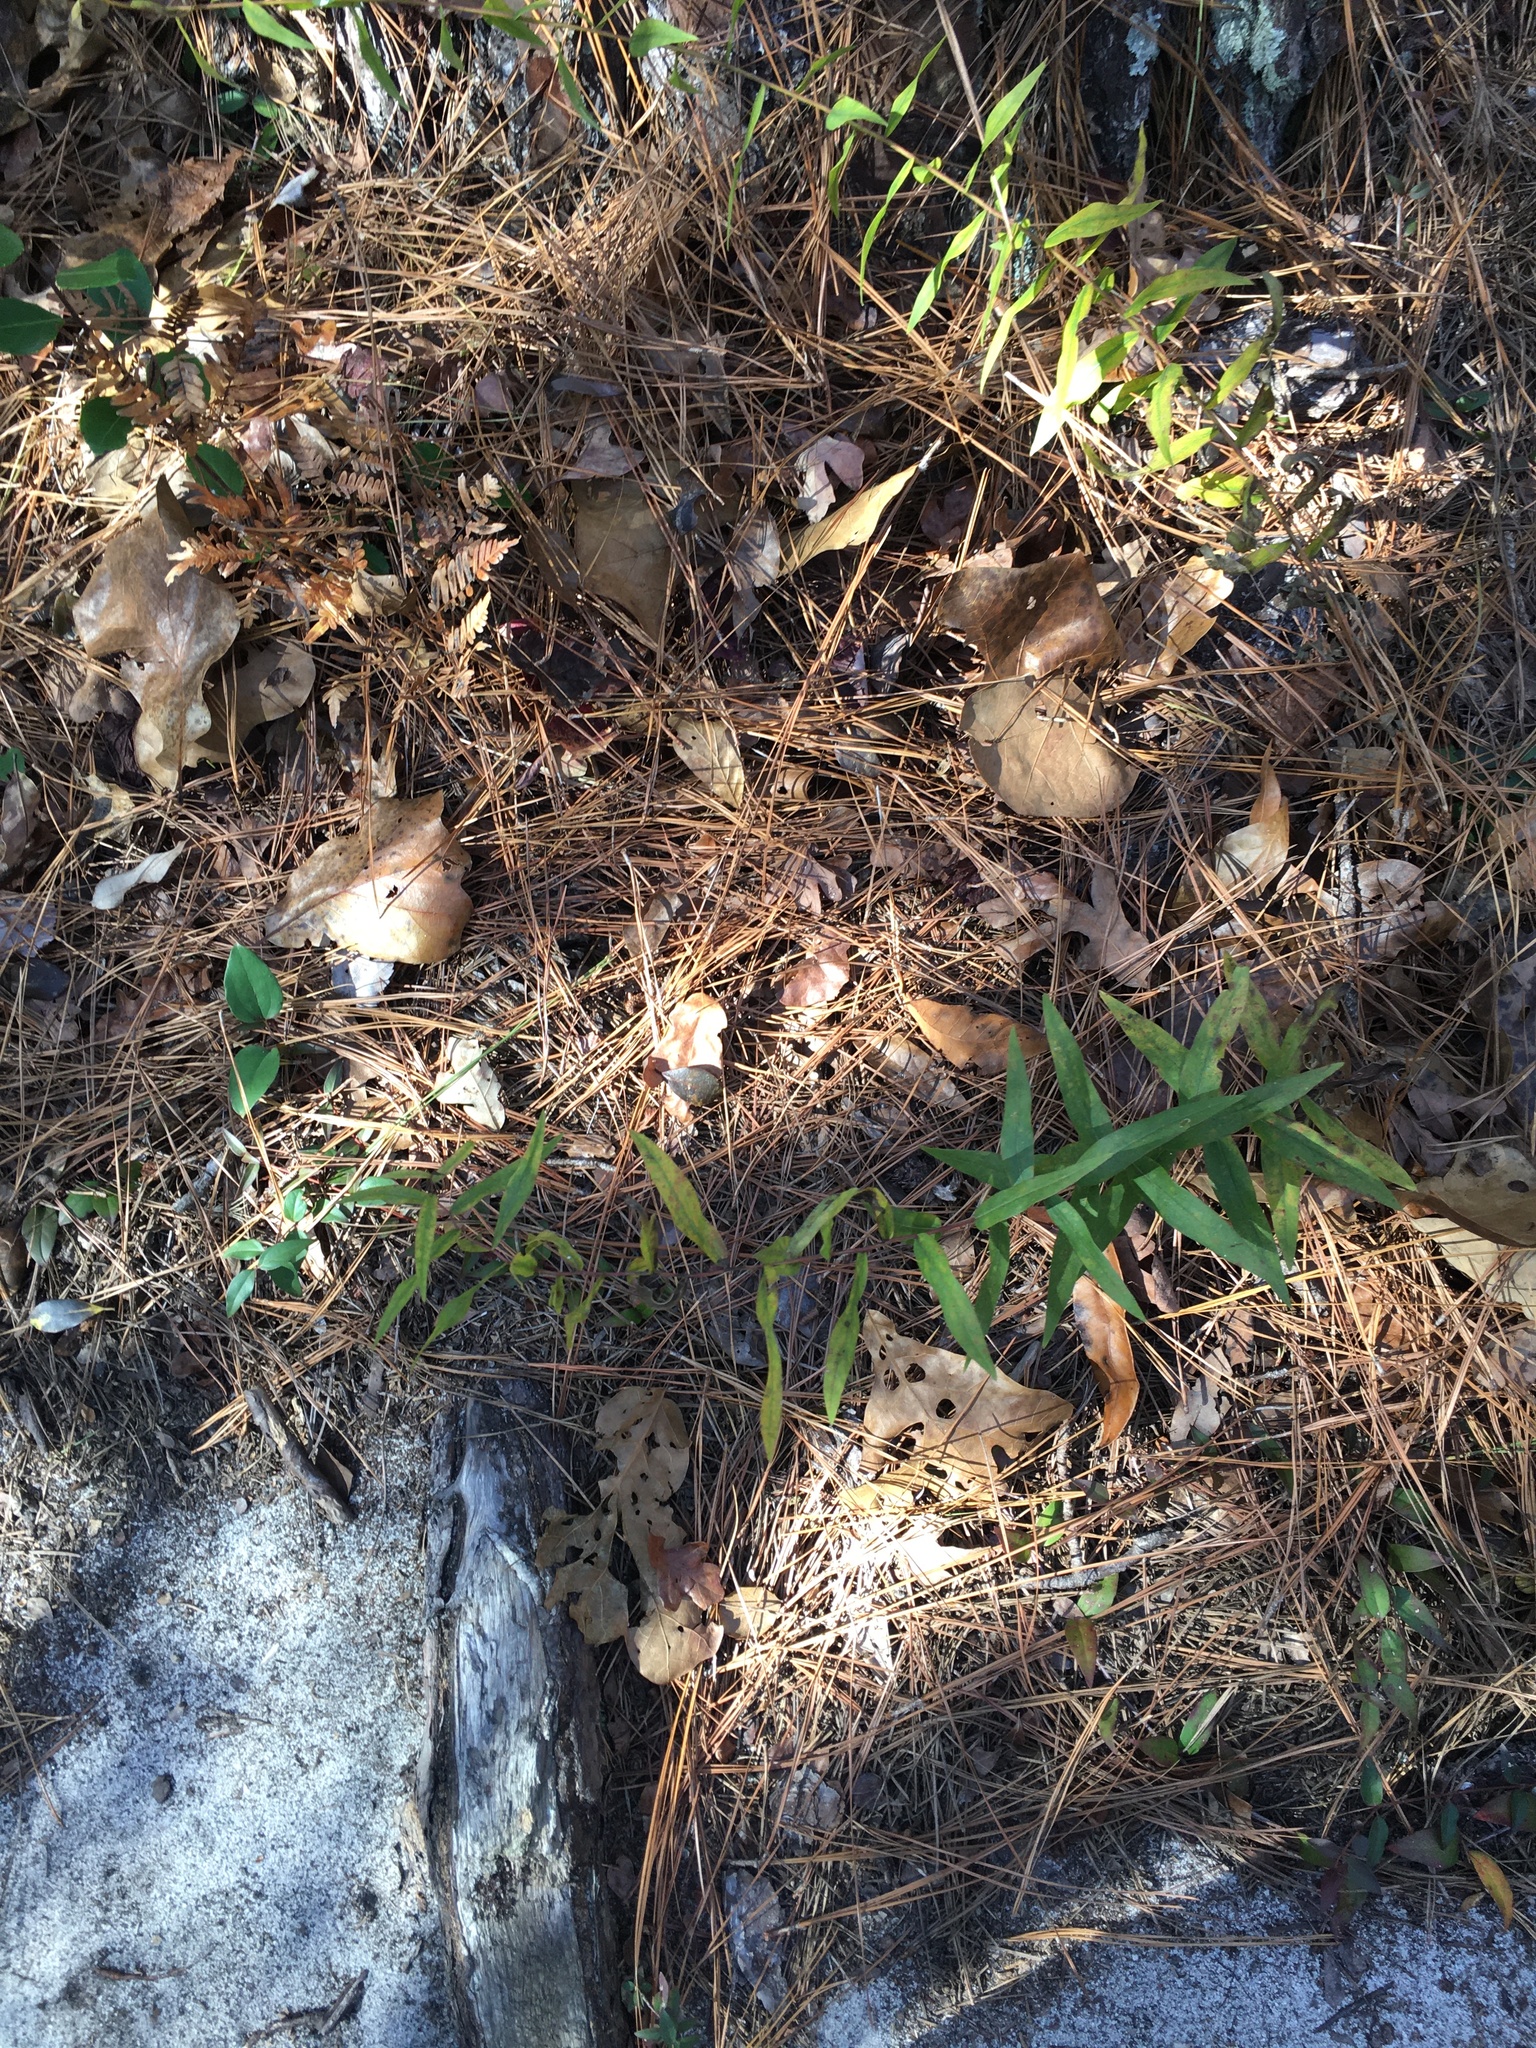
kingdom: Plantae
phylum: Tracheophyta
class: Magnoliopsida
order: Asterales
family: Asteraceae
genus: Solidago
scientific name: Solidago odora
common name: Anise-scented goldenrod
